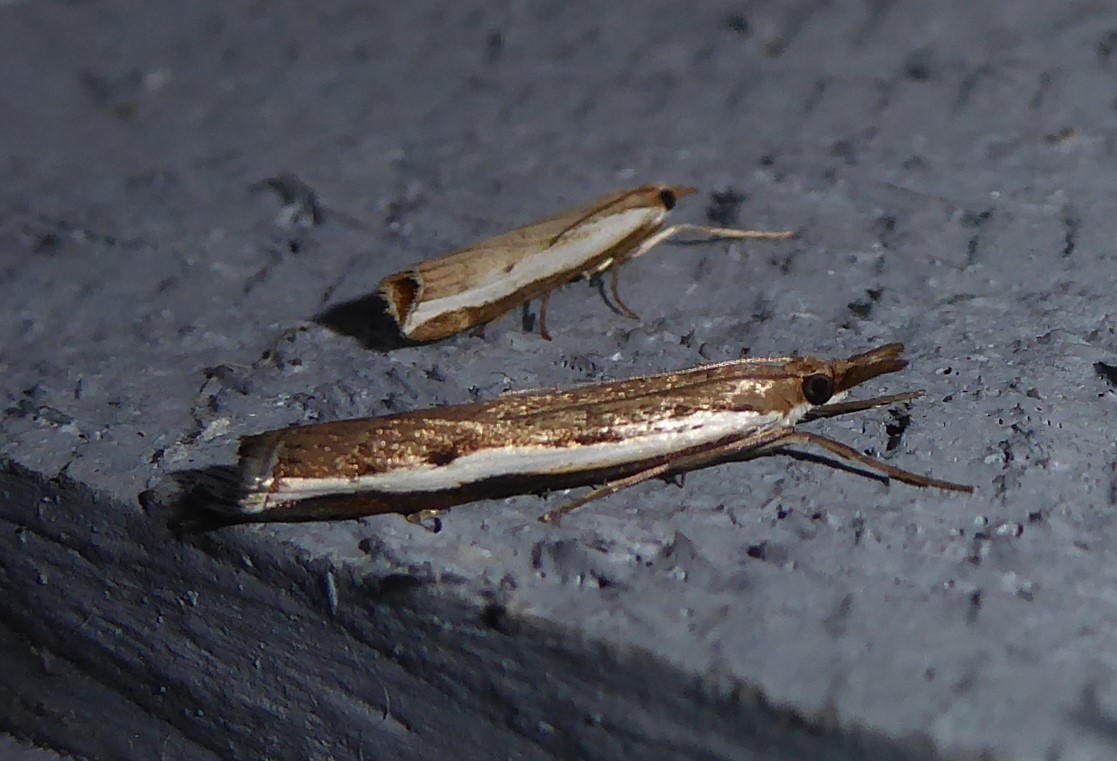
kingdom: Animalia
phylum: Arthropoda
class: Insecta
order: Lepidoptera
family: Crambidae
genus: Orocrambus
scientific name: Orocrambus flexuosellus
